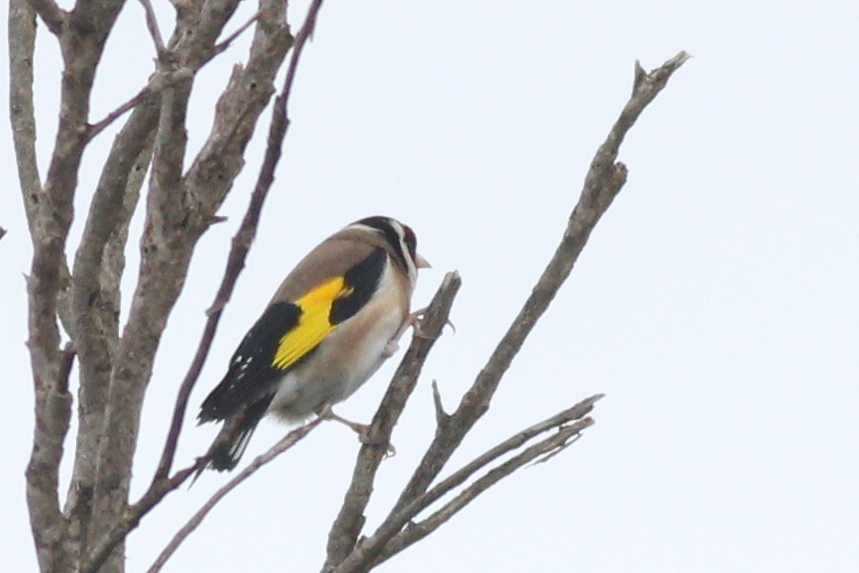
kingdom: Animalia
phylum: Chordata
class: Aves
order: Passeriformes
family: Fringillidae
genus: Carduelis
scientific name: Carduelis carduelis
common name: European goldfinch
